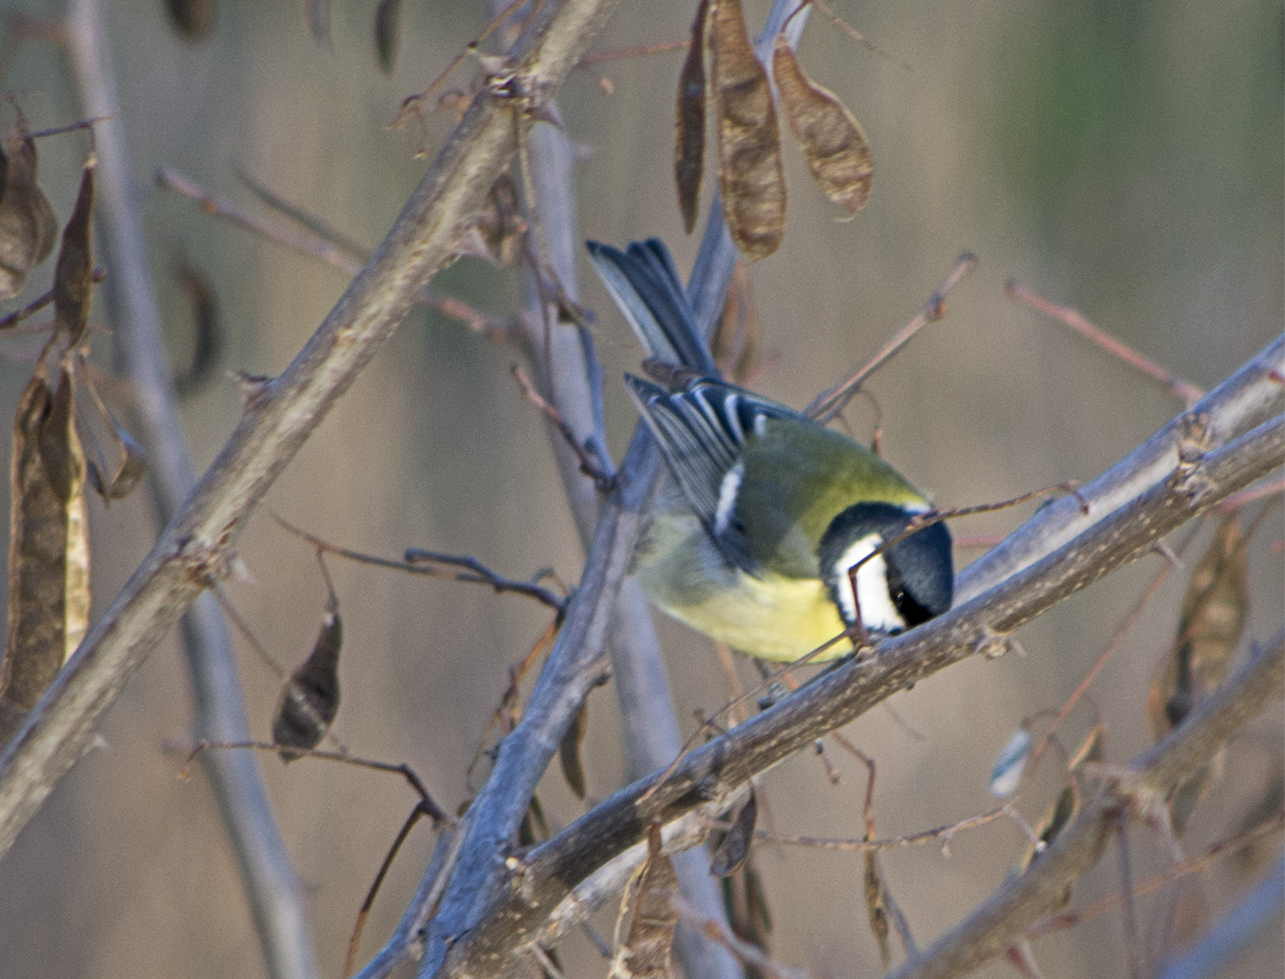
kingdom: Animalia
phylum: Chordata
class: Aves
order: Passeriformes
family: Paridae
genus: Parus
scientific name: Parus major
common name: Great tit
